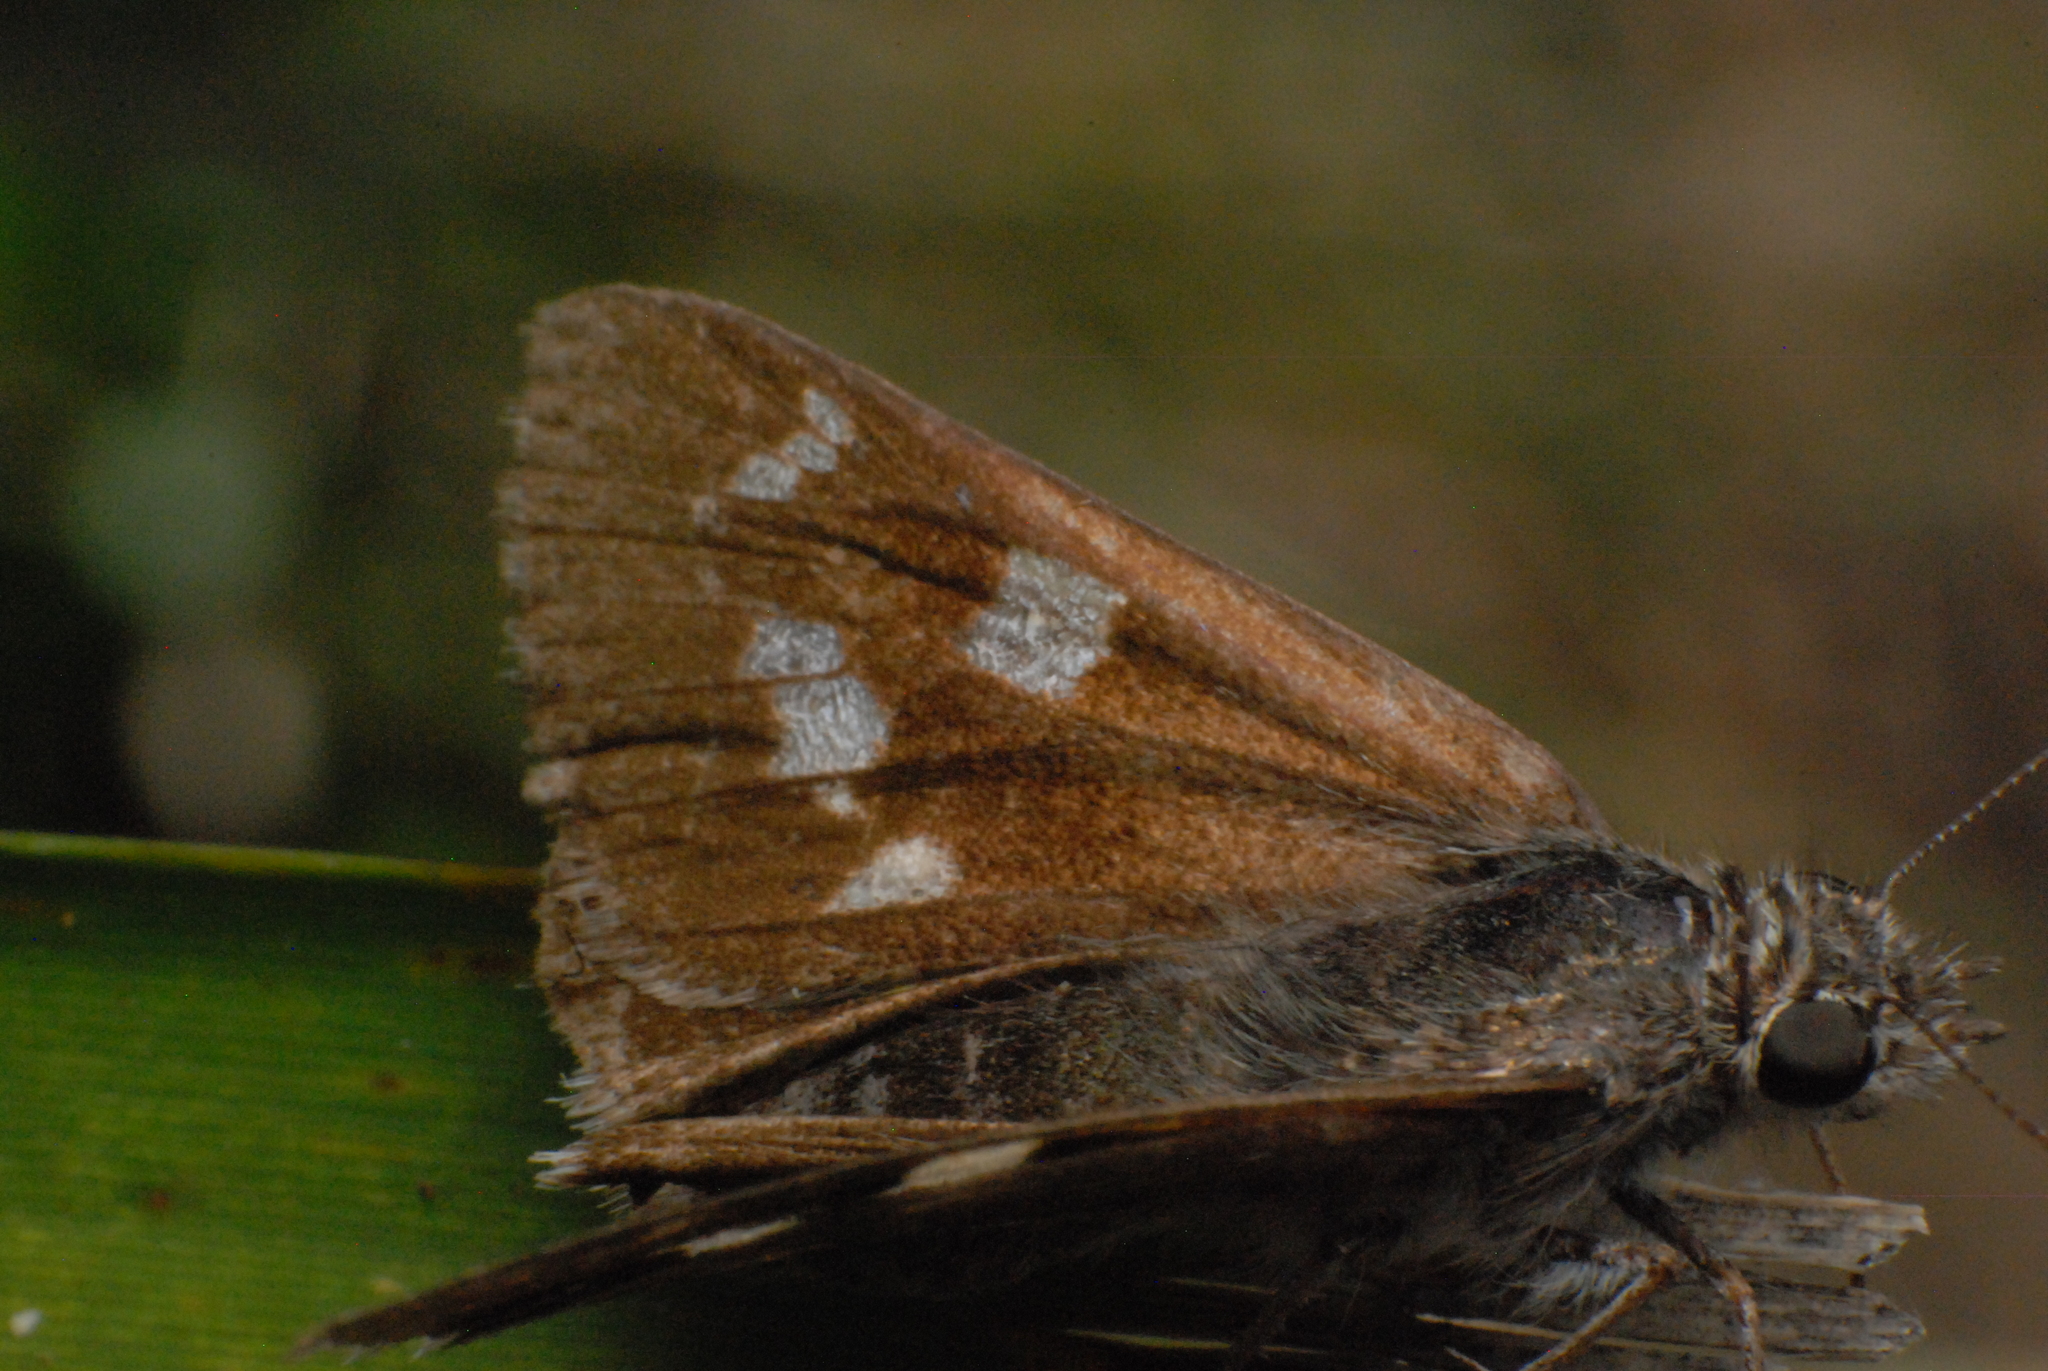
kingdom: Animalia
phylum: Arthropoda
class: Insecta
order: Lepidoptera
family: Hesperiidae
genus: Hesperilla
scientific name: Hesperilla donnysa
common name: Varied sedge-skipper
